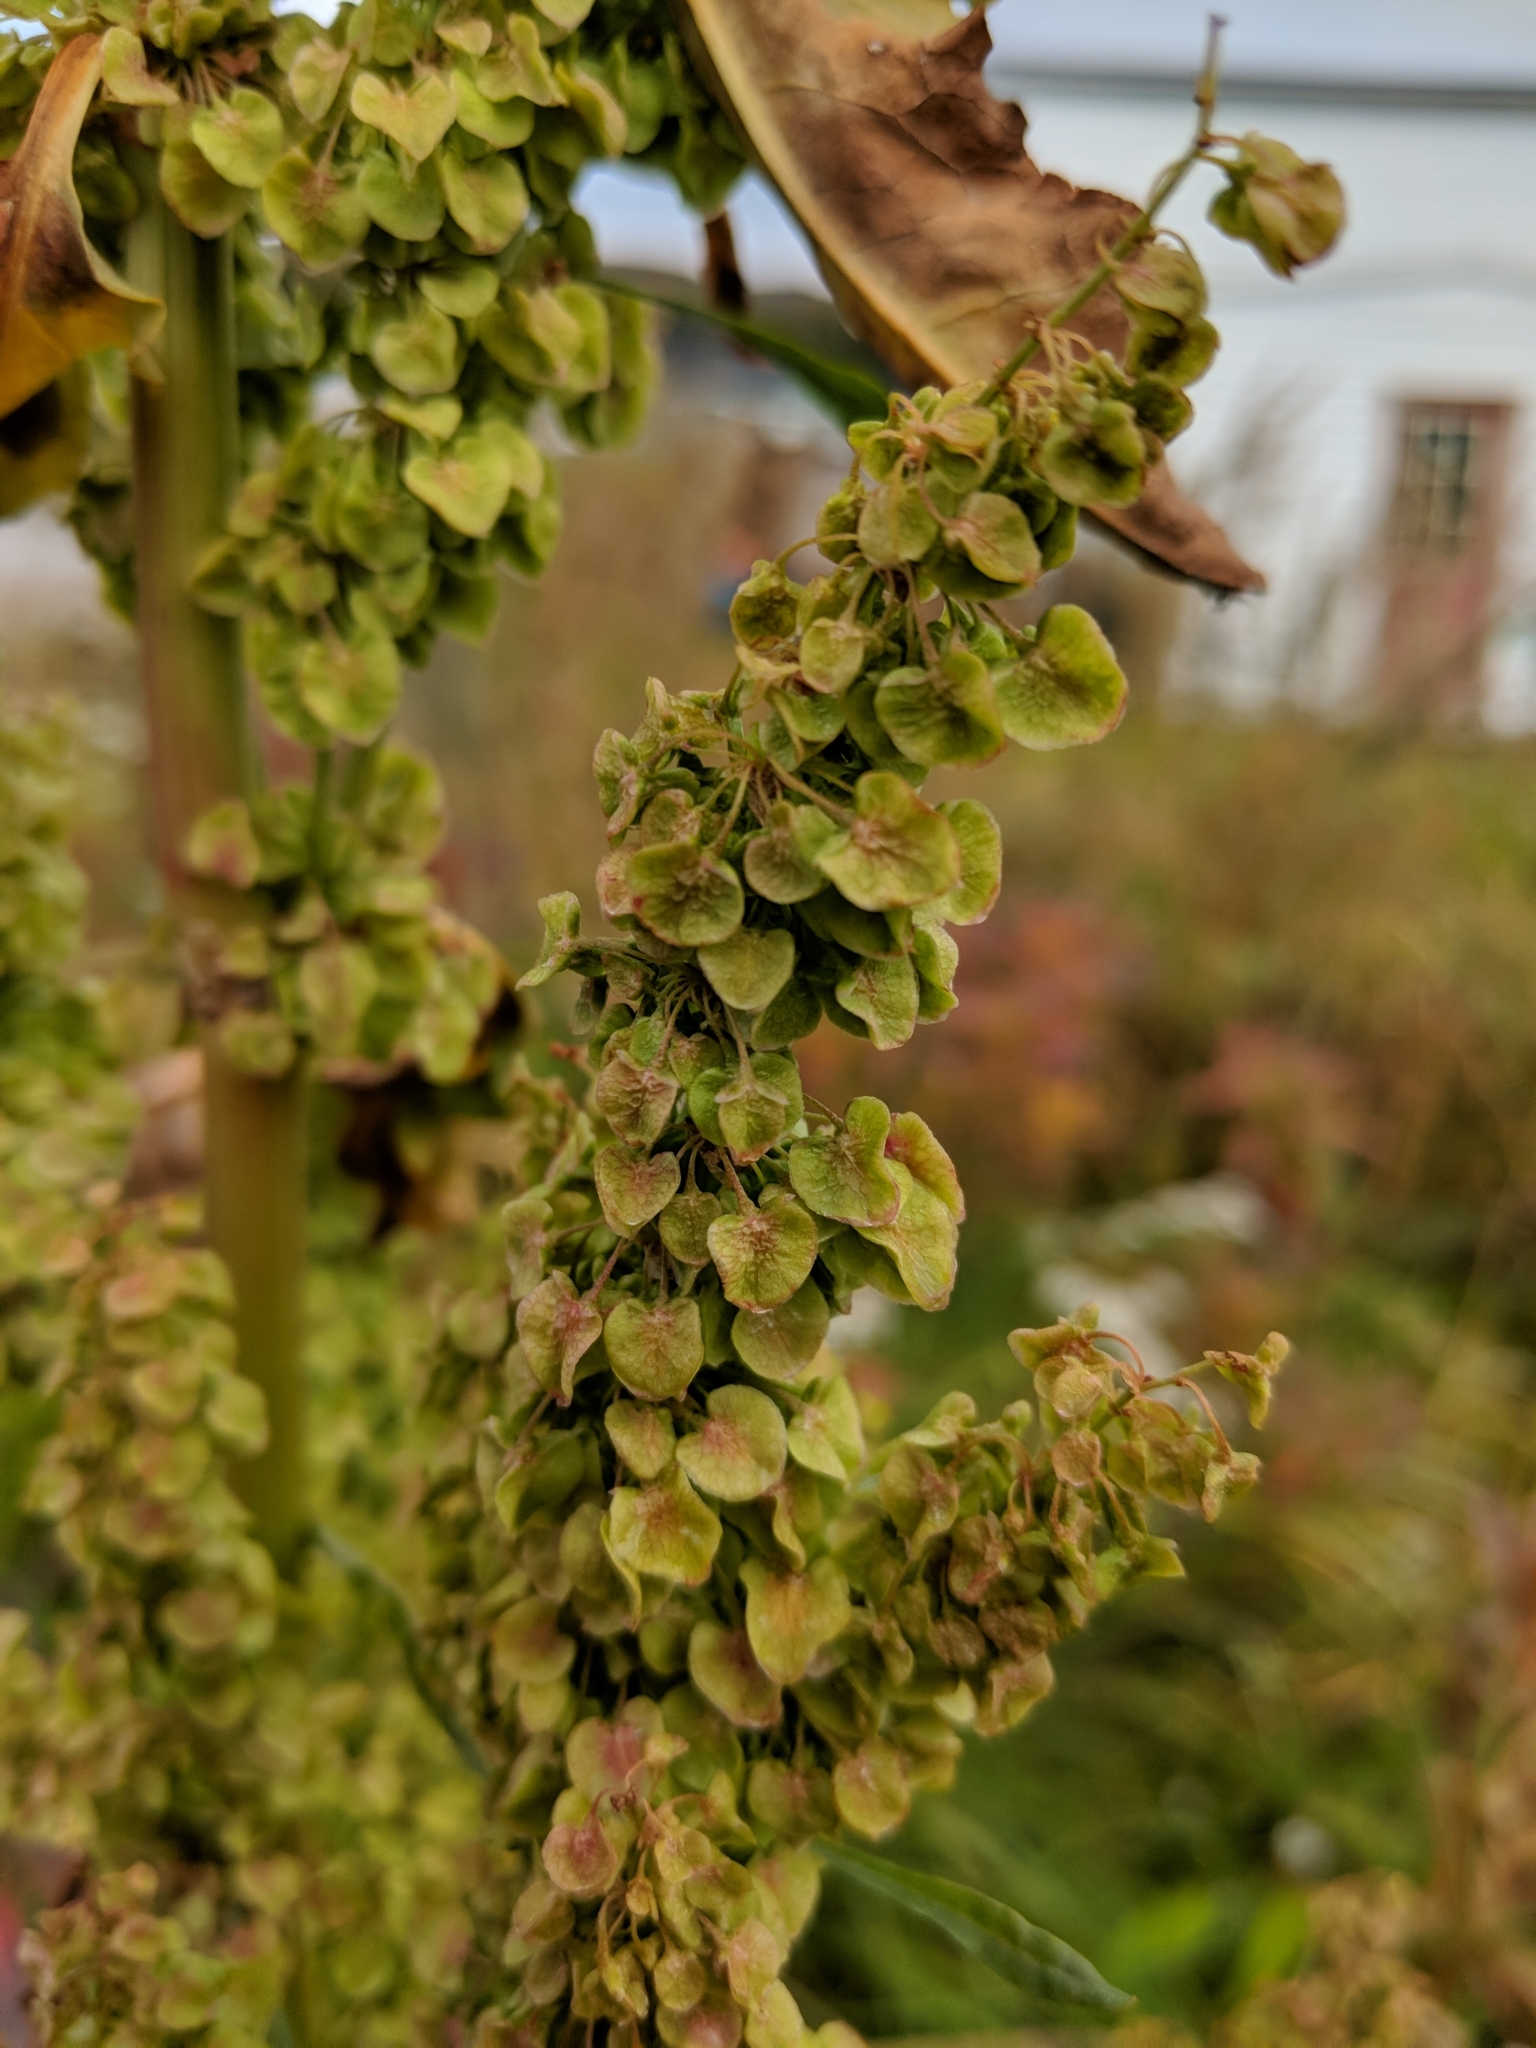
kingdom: Plantae
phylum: Tracheophyta
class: Magnoliopsida
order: Caryophyllales
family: Polygonaceae
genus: Rumex
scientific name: Rumex longifolius
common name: Dooryard dock
